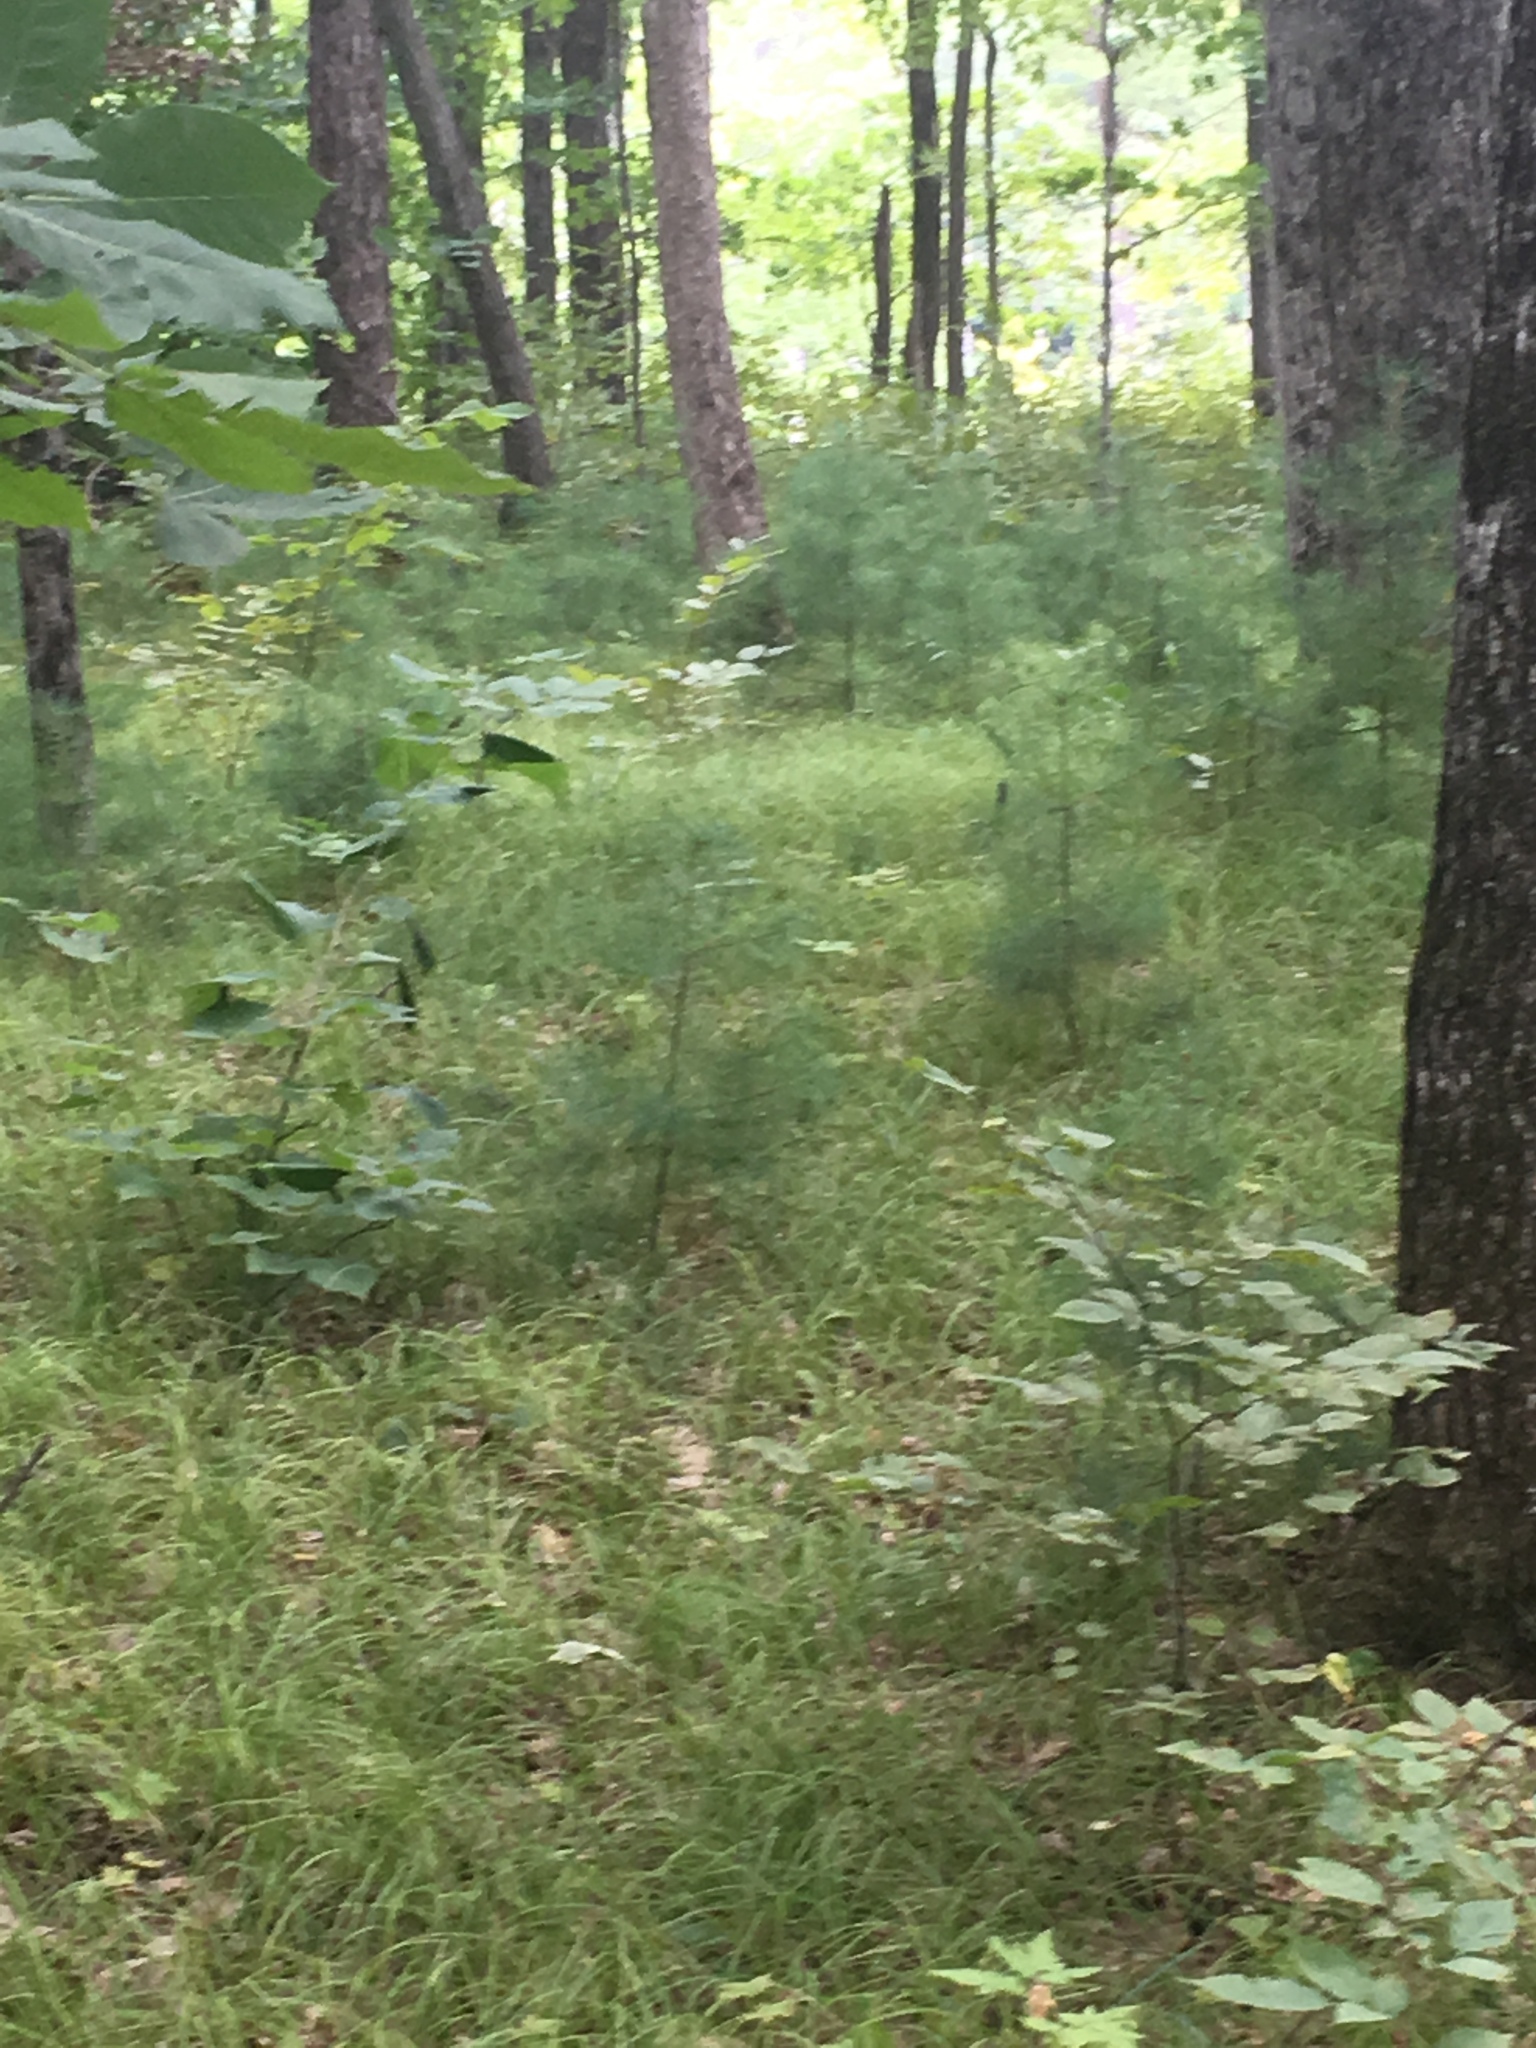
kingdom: Plantae
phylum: Tracheophyta
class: Pinopsida
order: Pinales
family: Pinaceae
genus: Pinus
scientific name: Pinus strobus
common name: Weymouth pine
